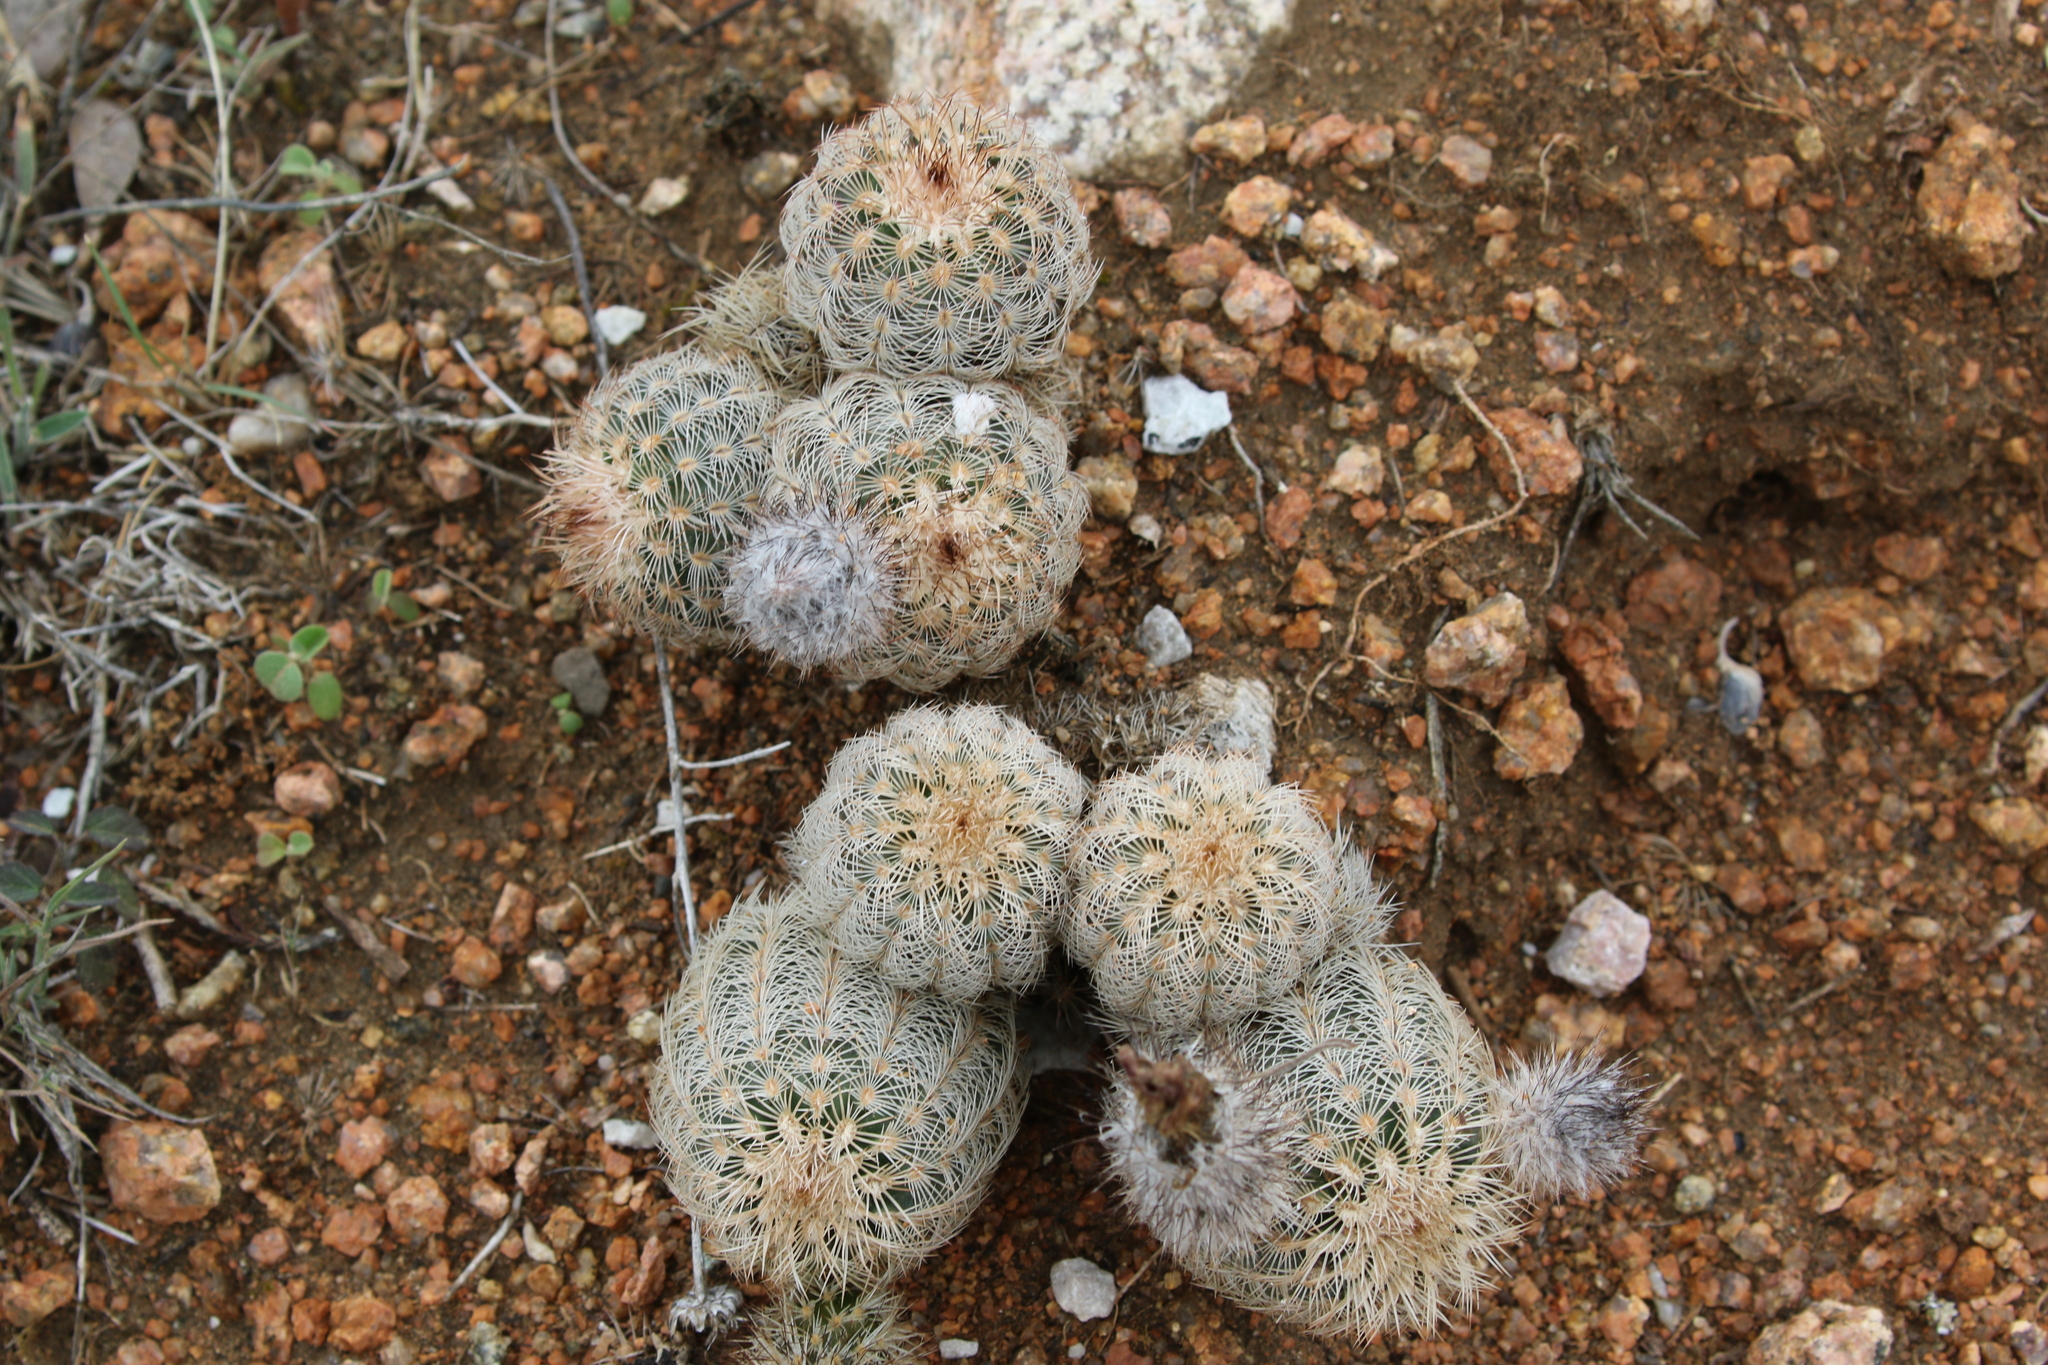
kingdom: Plantae
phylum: Tracheophyta
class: Magnoliopsida
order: Caryophyllales
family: Cactaceae
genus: Echinocereus
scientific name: Echinocereus reichenbachii
